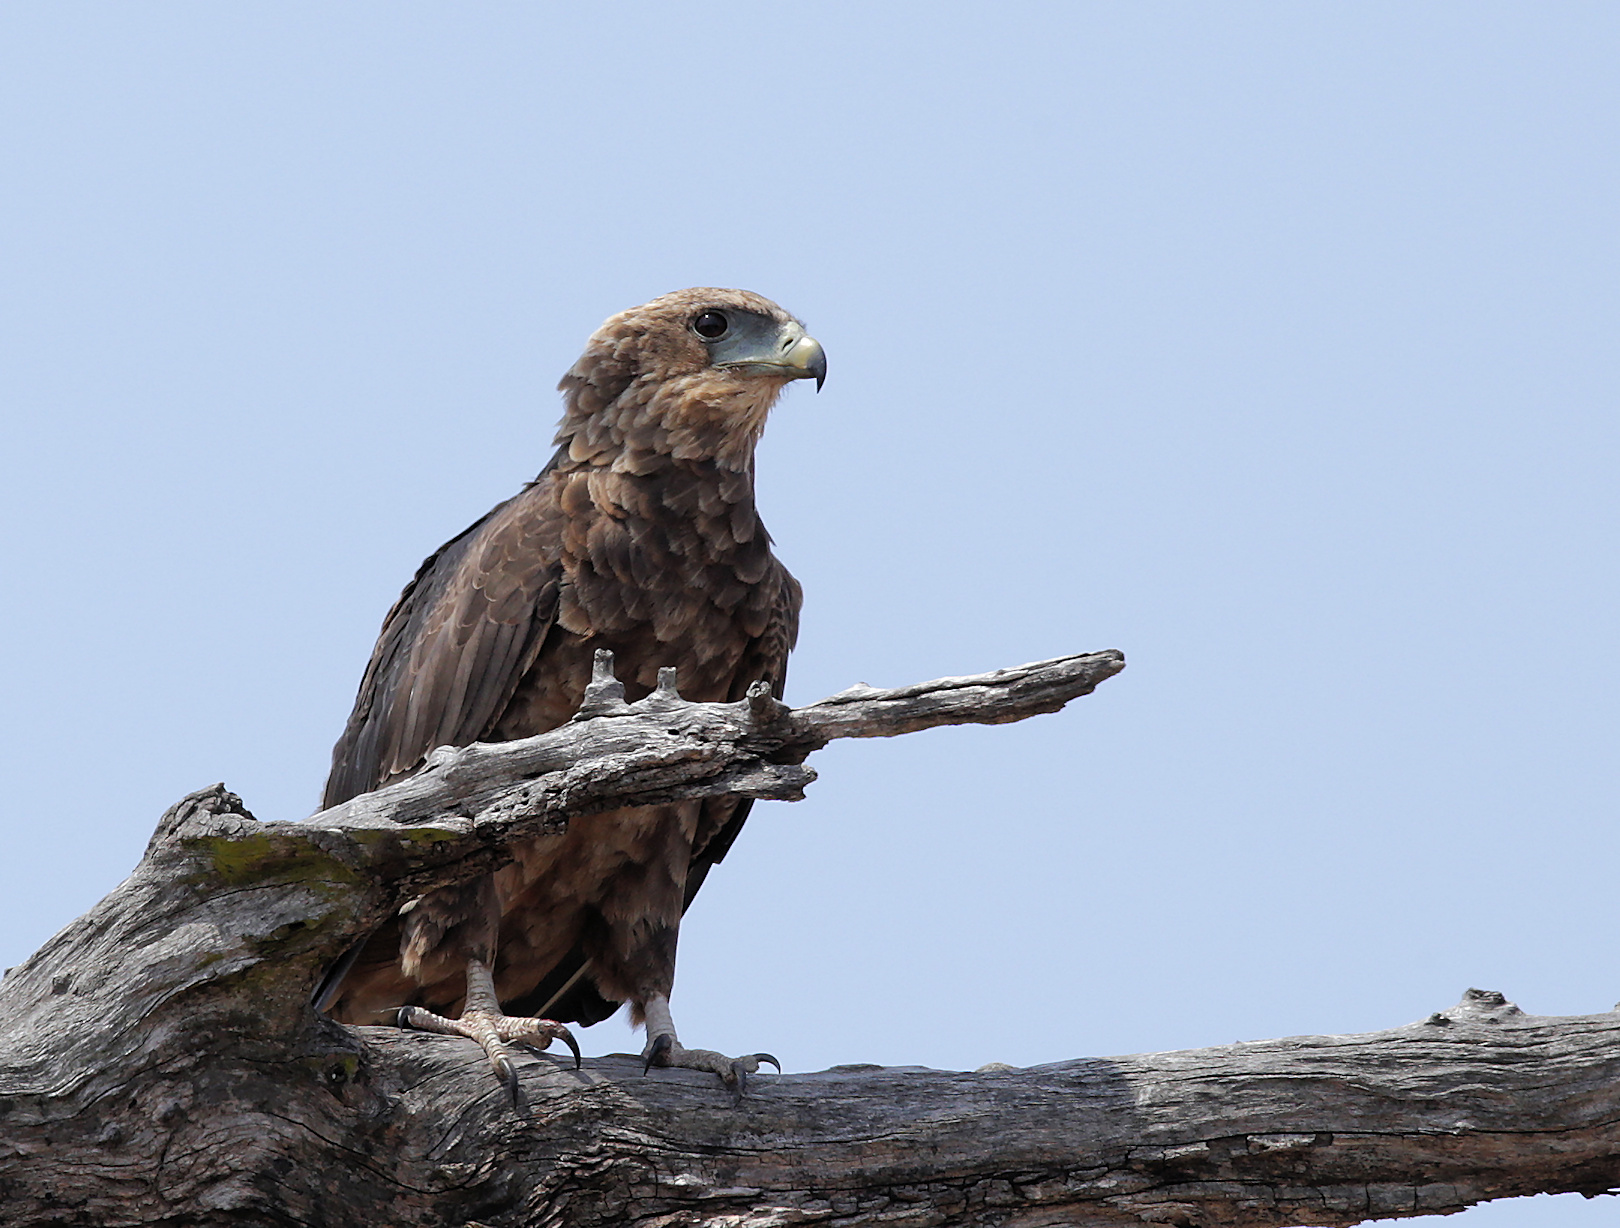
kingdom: Animalia
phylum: Chordata
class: Aves
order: Accipitriformes
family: Accipitridae
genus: Terathopius
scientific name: Terathopius ecaudatus
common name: Bateleur
